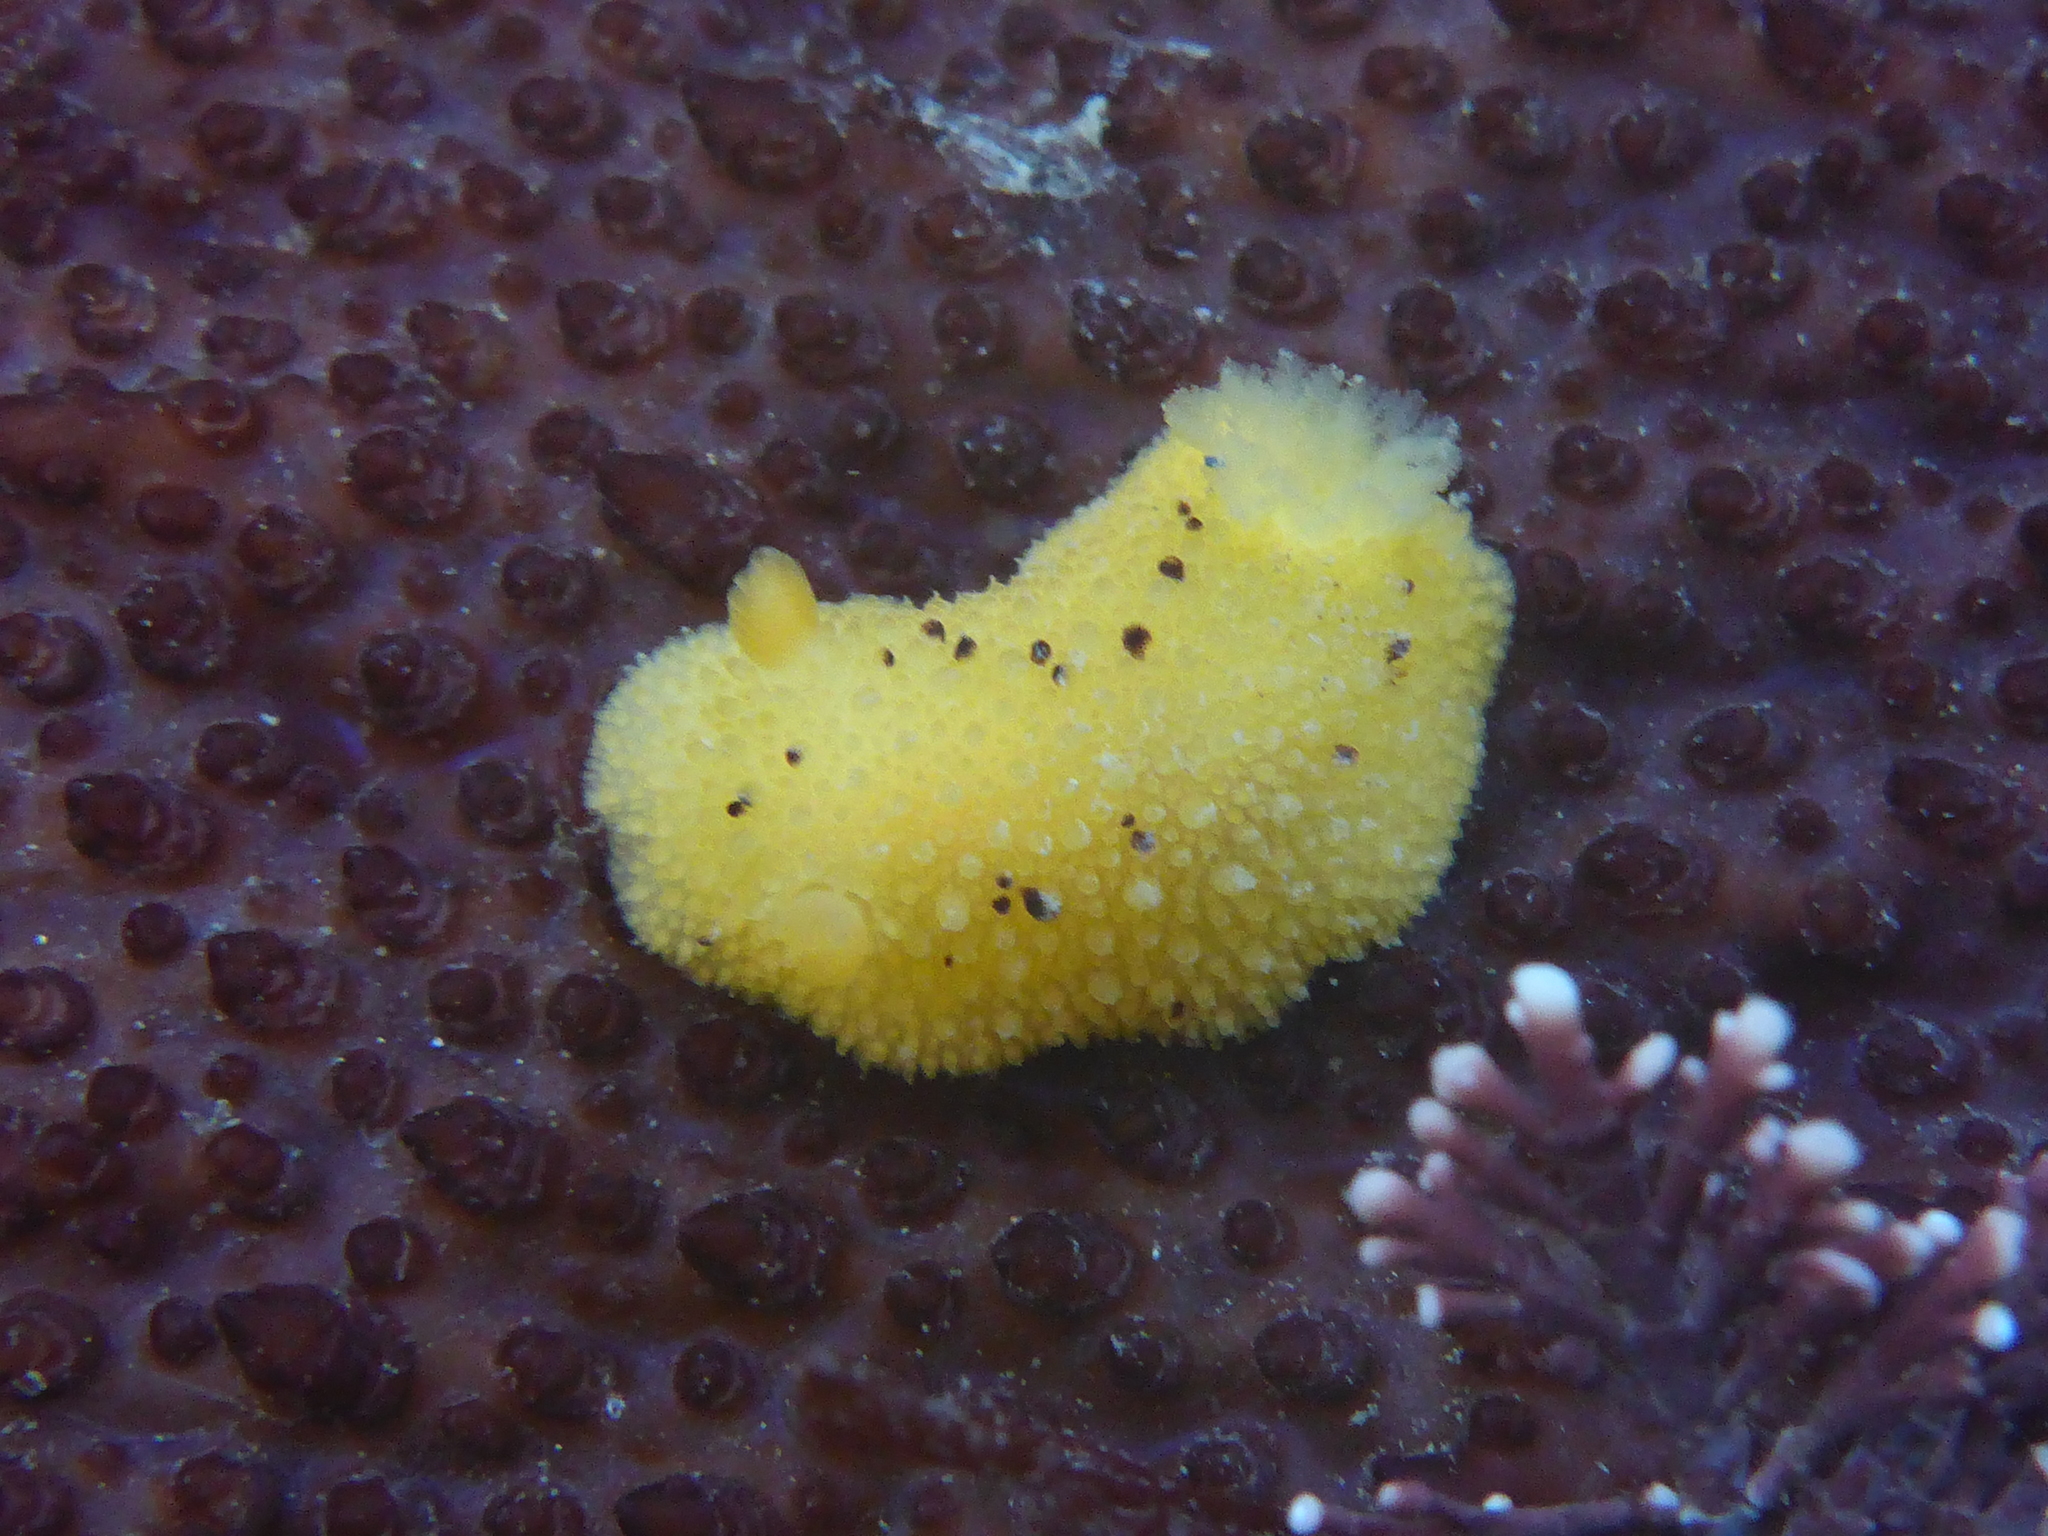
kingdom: Animalia
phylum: Mollusca
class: Gastropoda
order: Nudibranchia
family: Dorididae
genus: Doris
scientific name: Doris montereyensis
